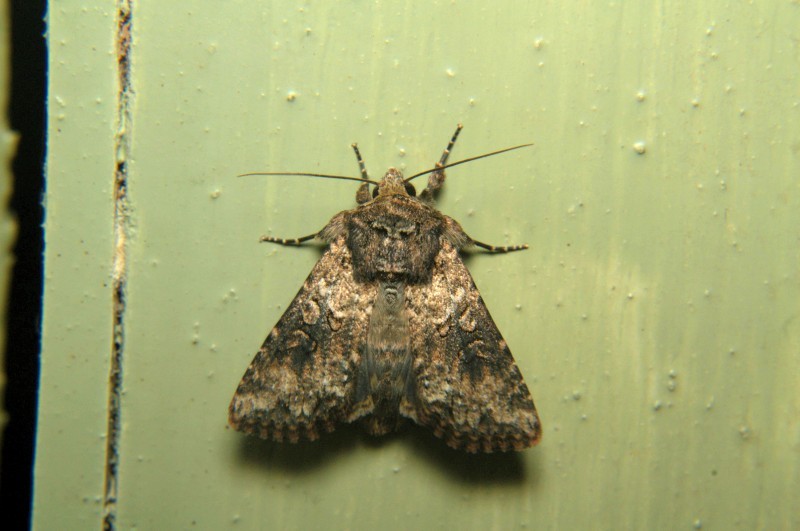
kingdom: Animalia
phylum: Arthropoda
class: Insecta
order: Lepidoptera
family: Noctuidae
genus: Mythimna
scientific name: Mythimna consanguis
